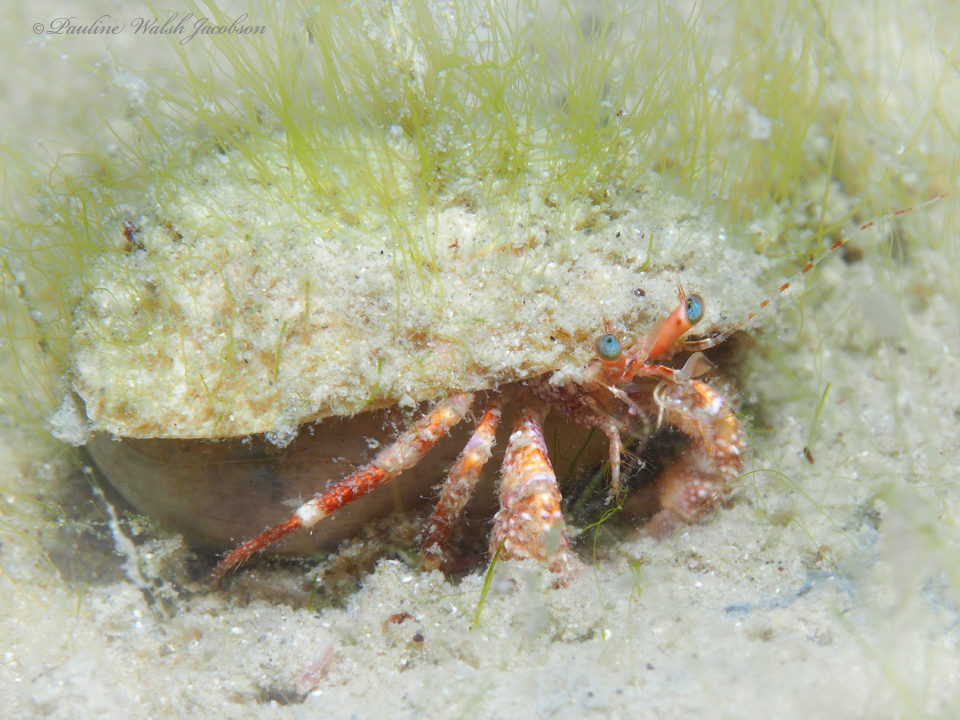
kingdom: Animalia
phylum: Arthropoda
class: Malacostraca
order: Decapoda
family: Diogenidae
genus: Petrochirus
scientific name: Petrochirus diogenes
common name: Giant hermit crab
